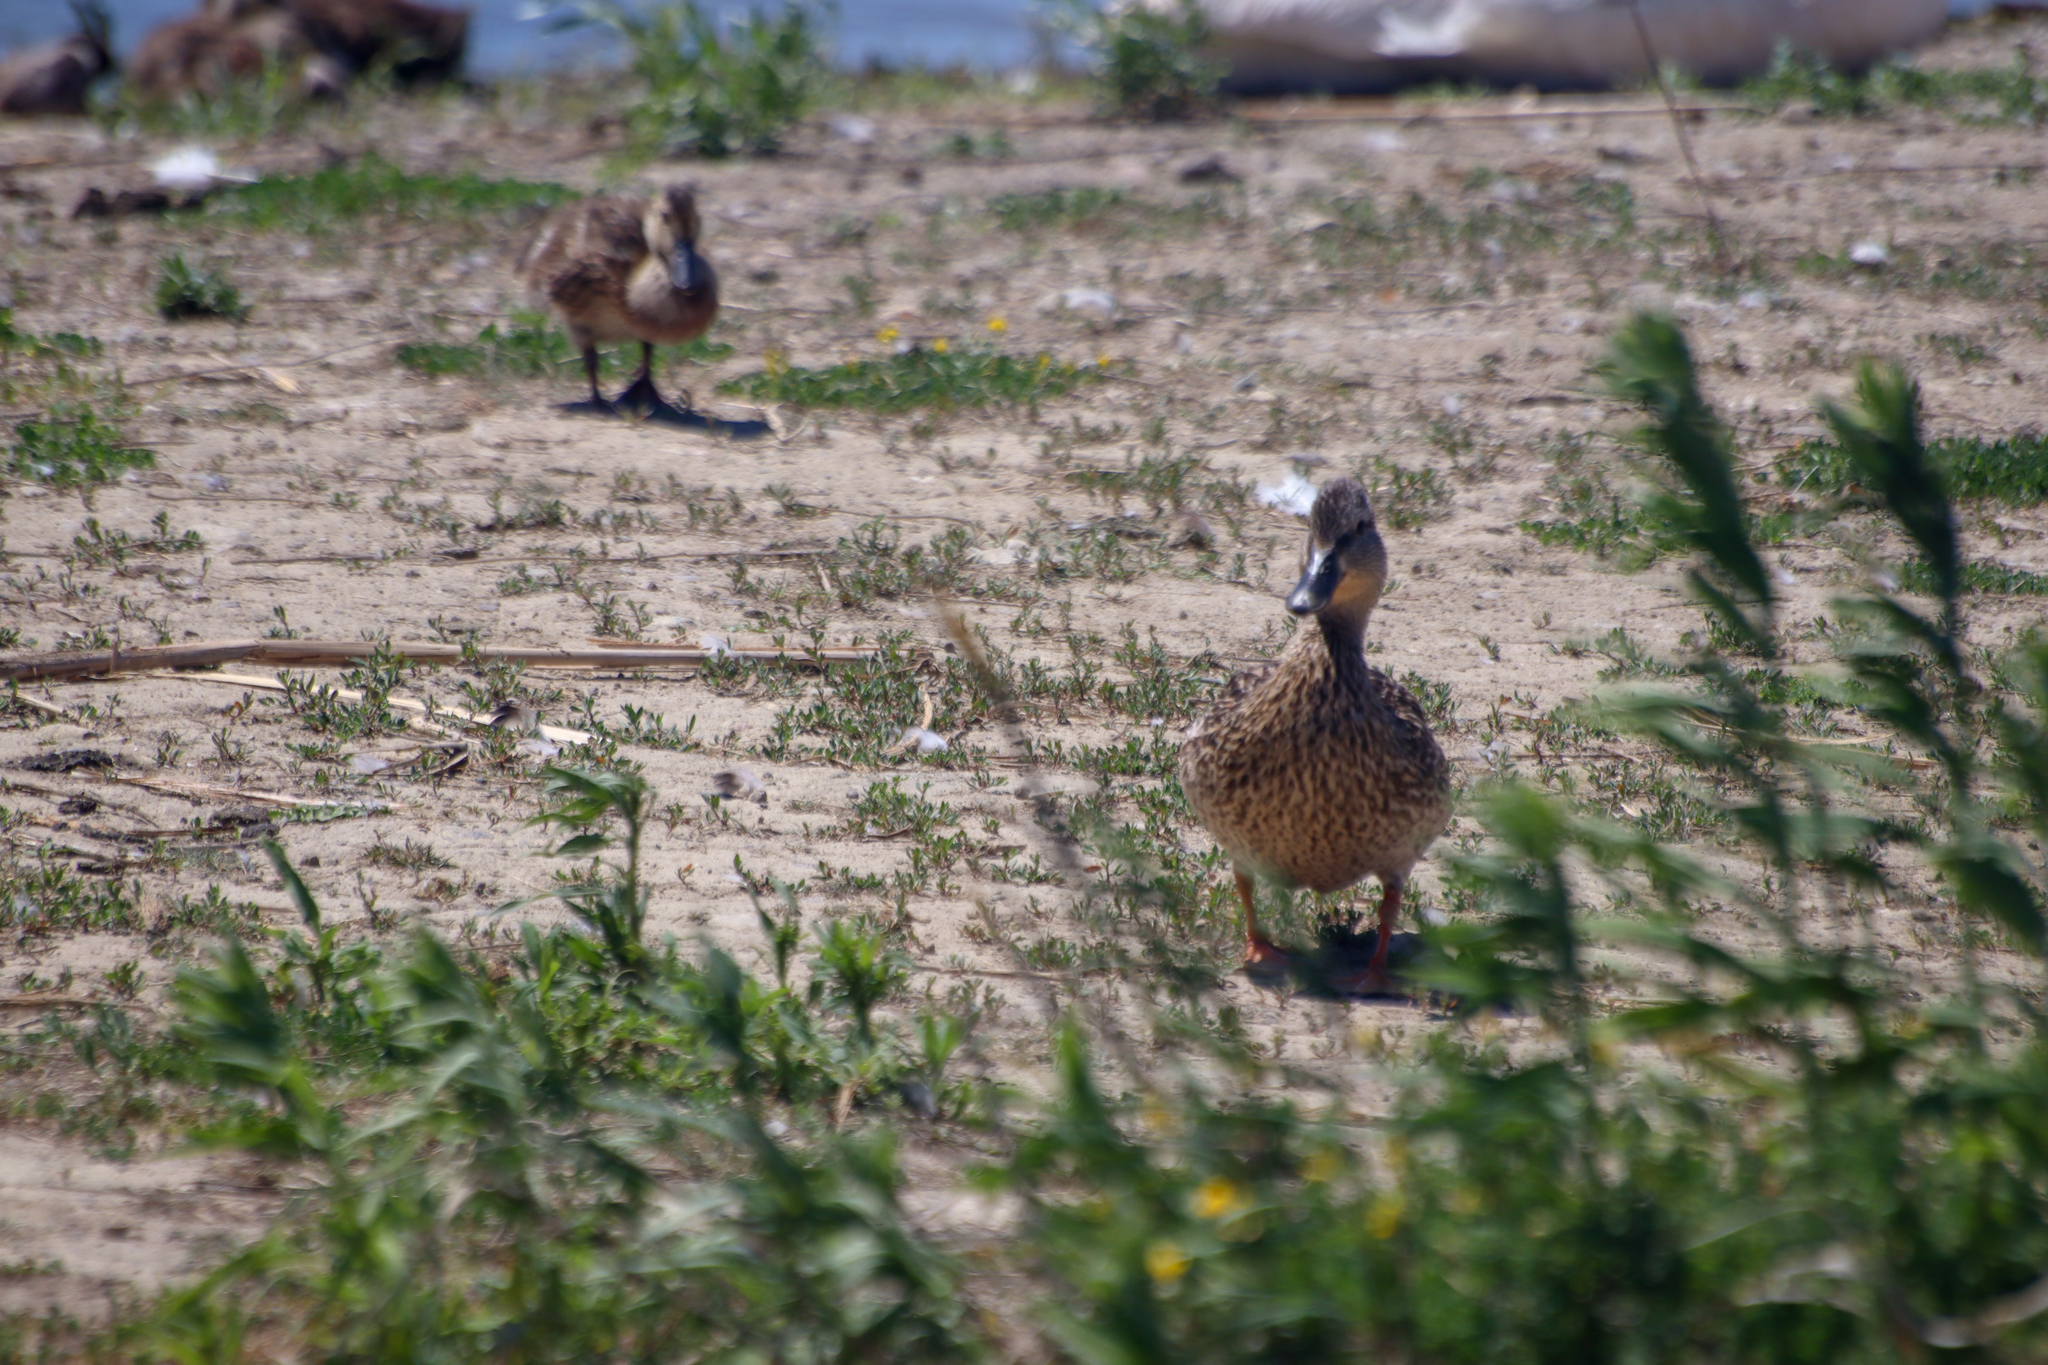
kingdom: Animalia
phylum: Chordata
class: Aves
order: Anseriformes
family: Anatidae
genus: Anas
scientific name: Anas platyrhynchos
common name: Mallard
